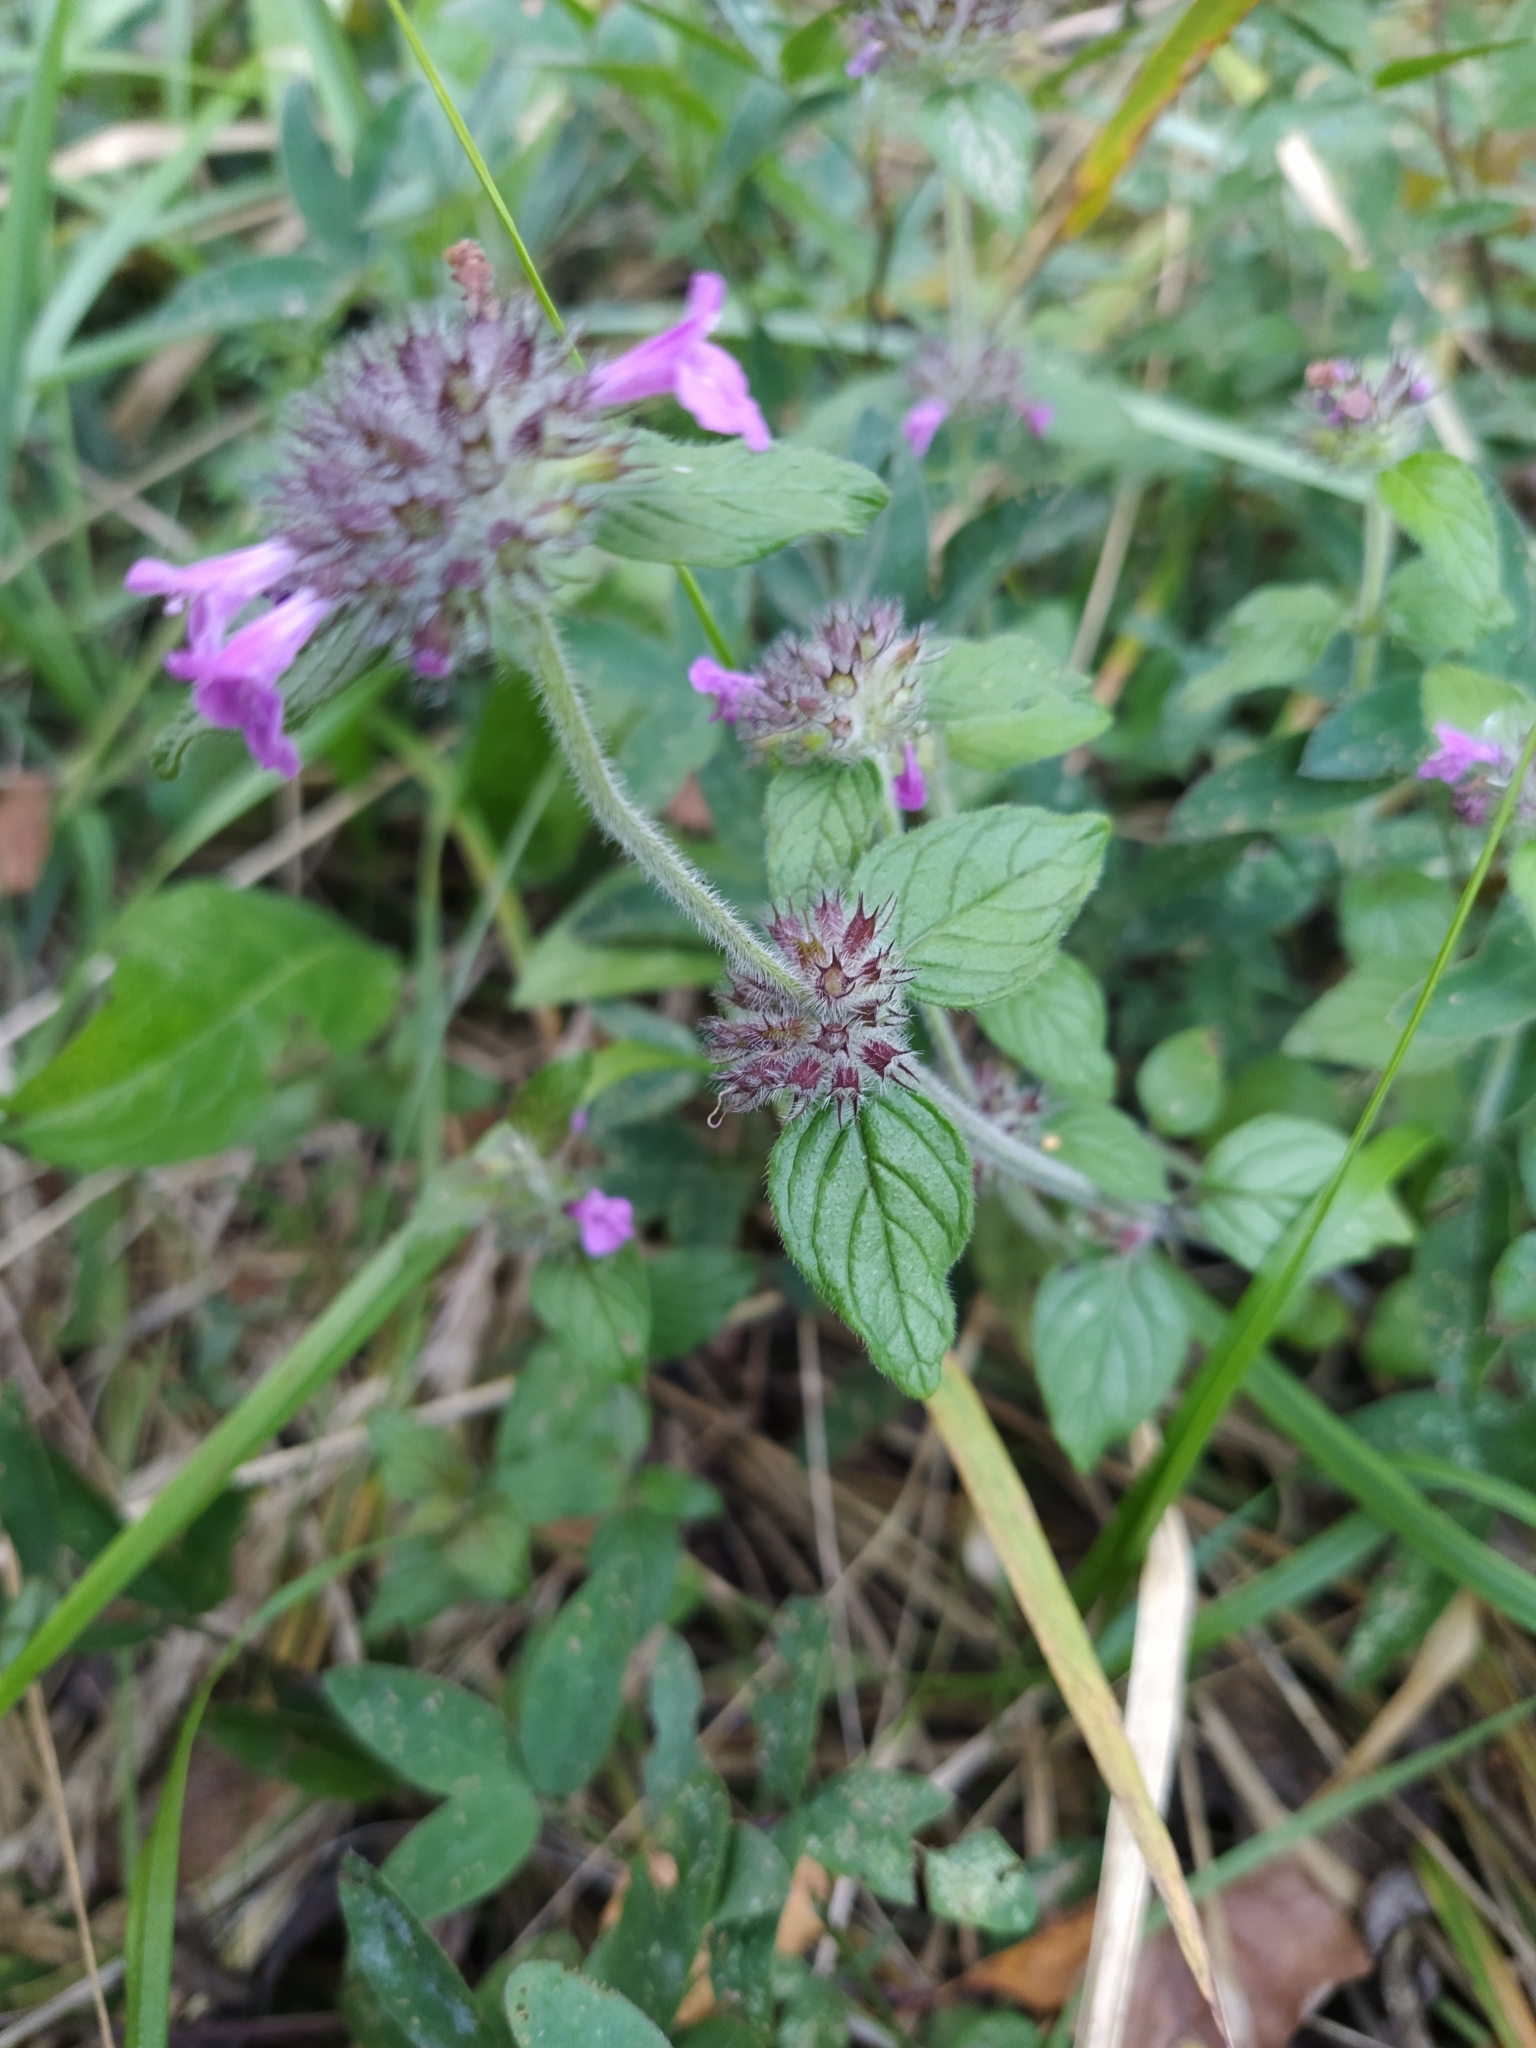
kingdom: Plantae
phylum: Tracheophyta
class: Magnoliopsida
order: Lamiales
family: Lamiaceae
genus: Clinopodium
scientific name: Clinopodium vulgare
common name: Wild basil
